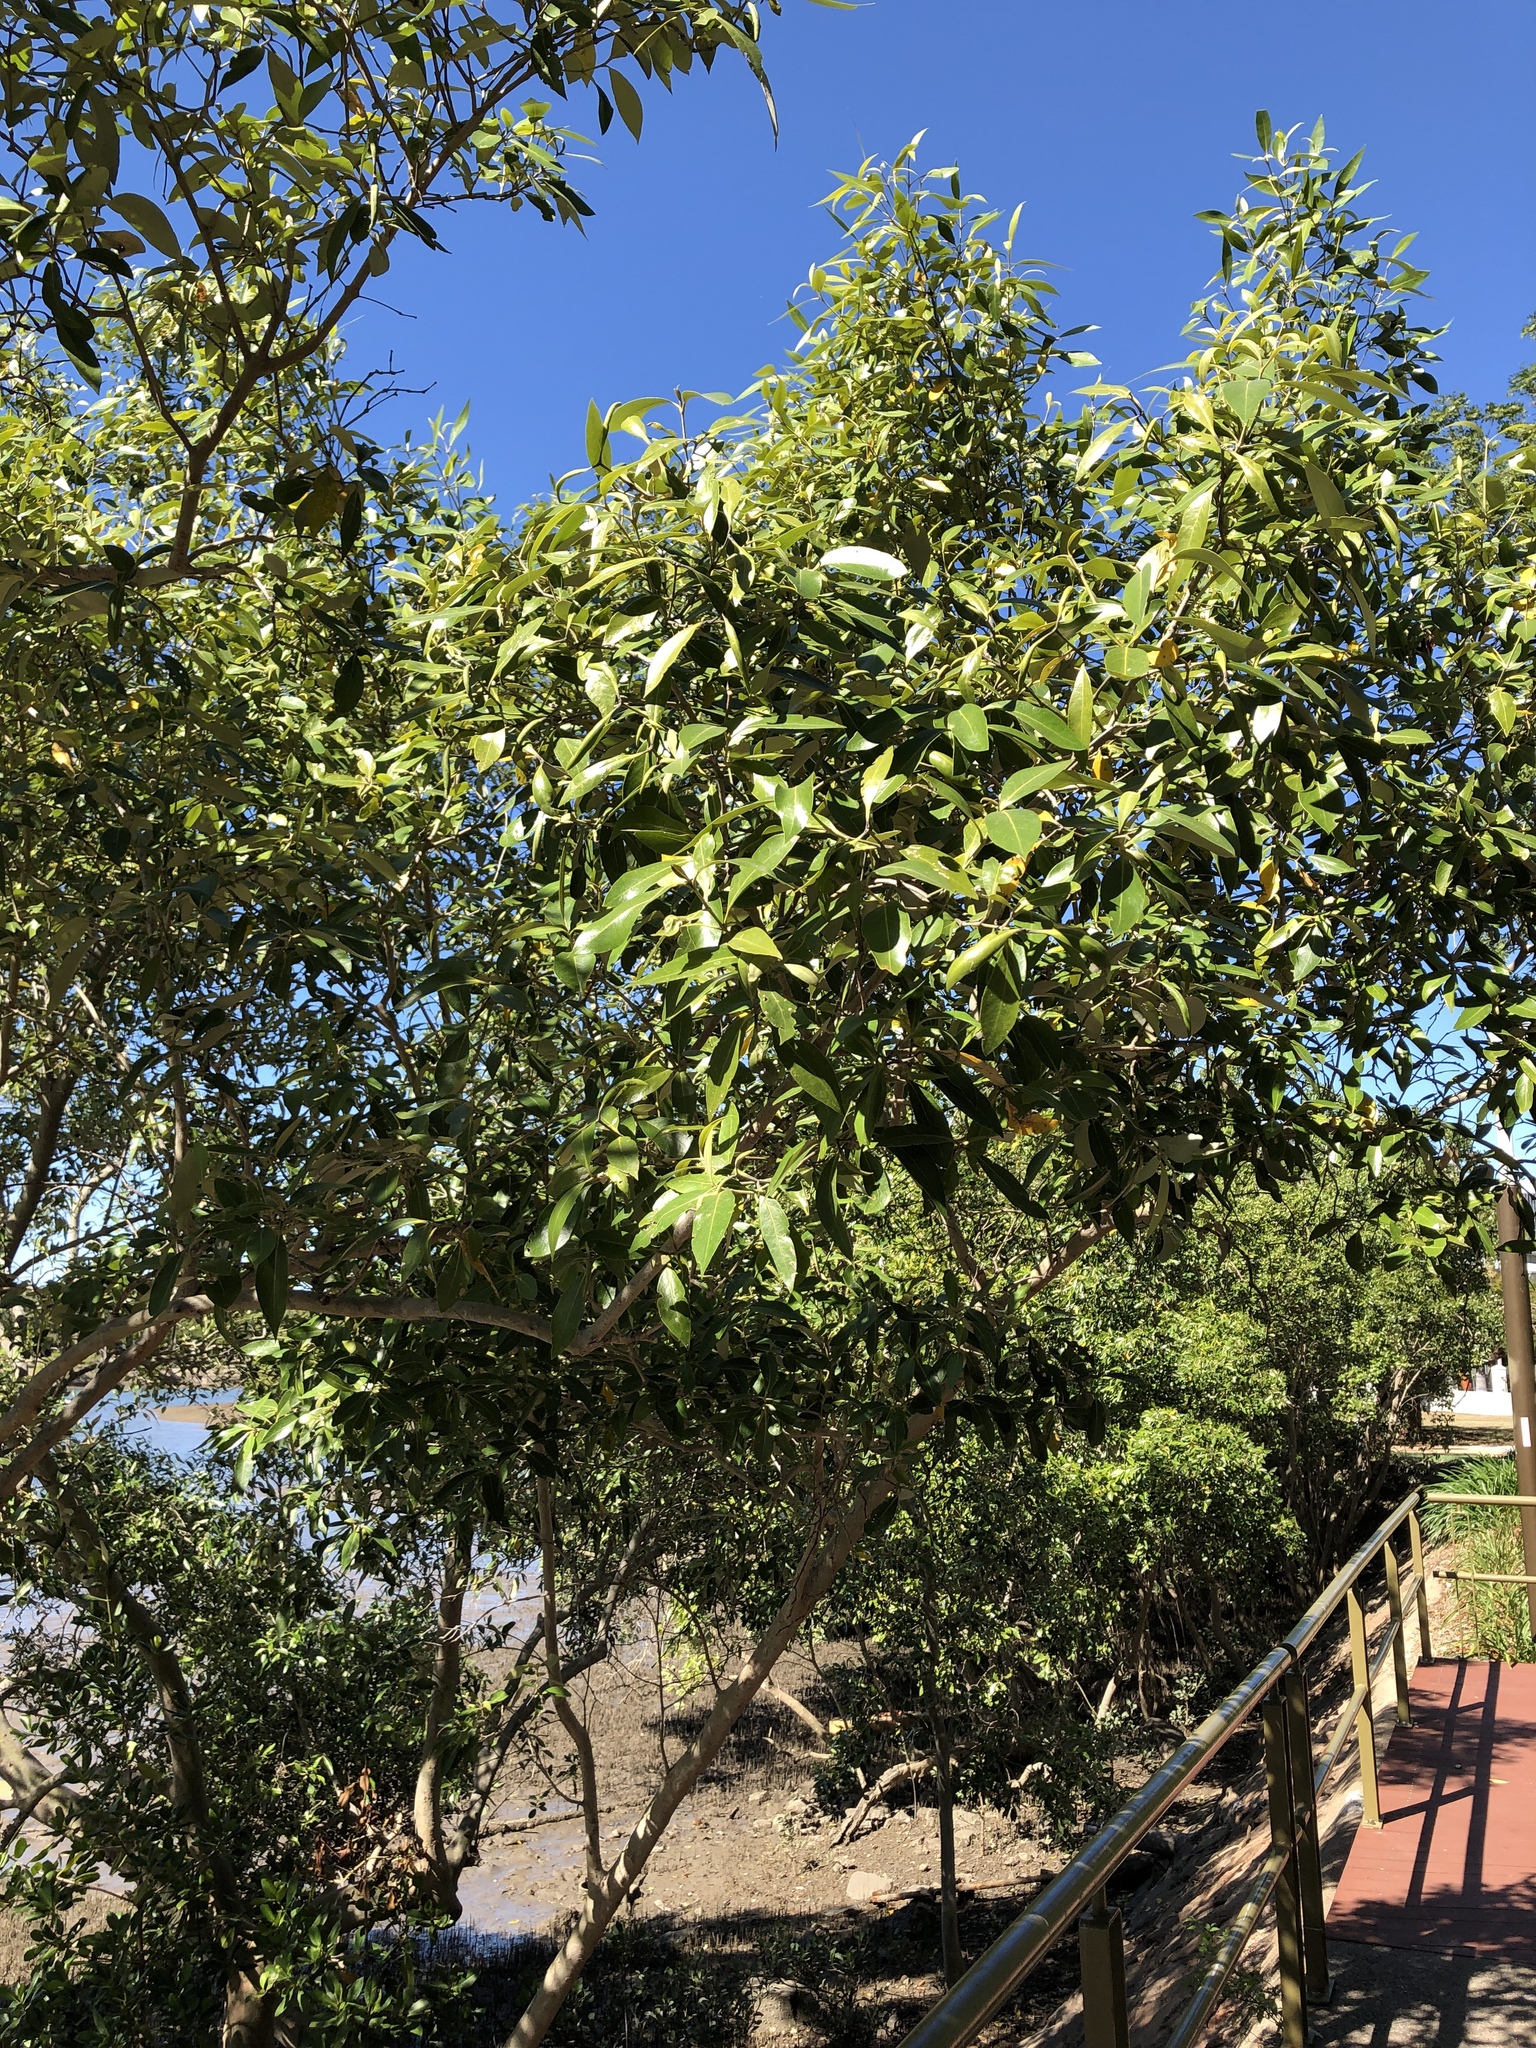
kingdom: Plantae
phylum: Tracheophyta
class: Magnoliopsida
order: Lamiales
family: Acanthaceae
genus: Avicennia
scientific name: Avicennia marina
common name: Gray mangrove
